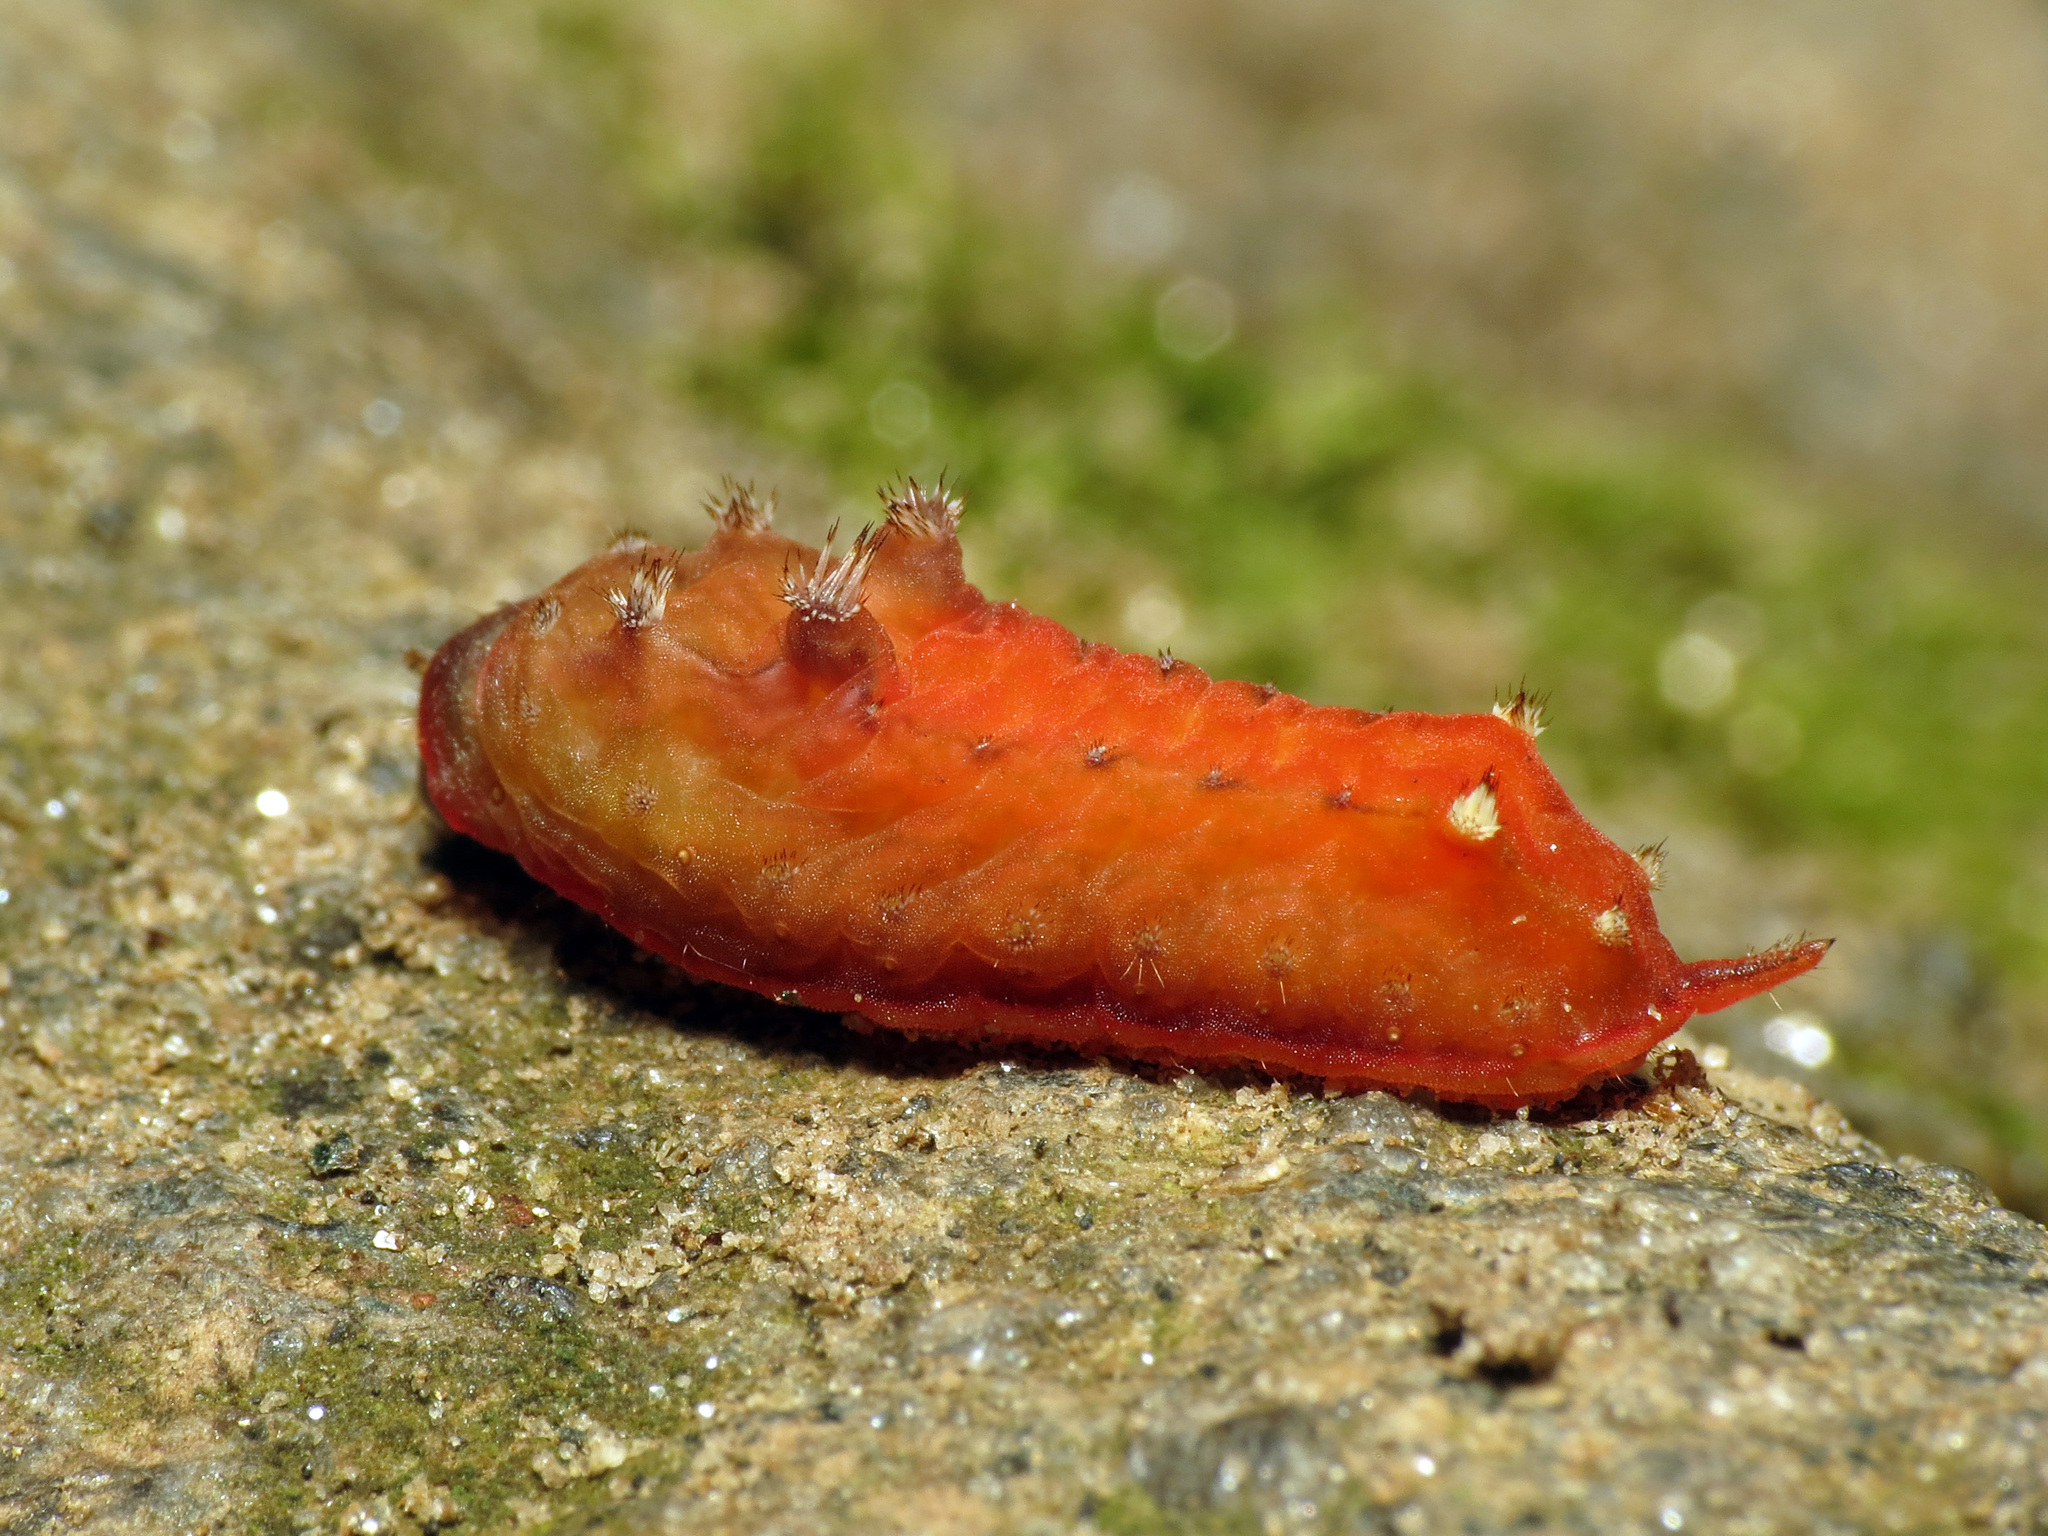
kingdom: Animalia
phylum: Arthropoda
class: Insecta
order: Lepidoptera
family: Limacodidae
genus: Parasa
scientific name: Parasa chloris
